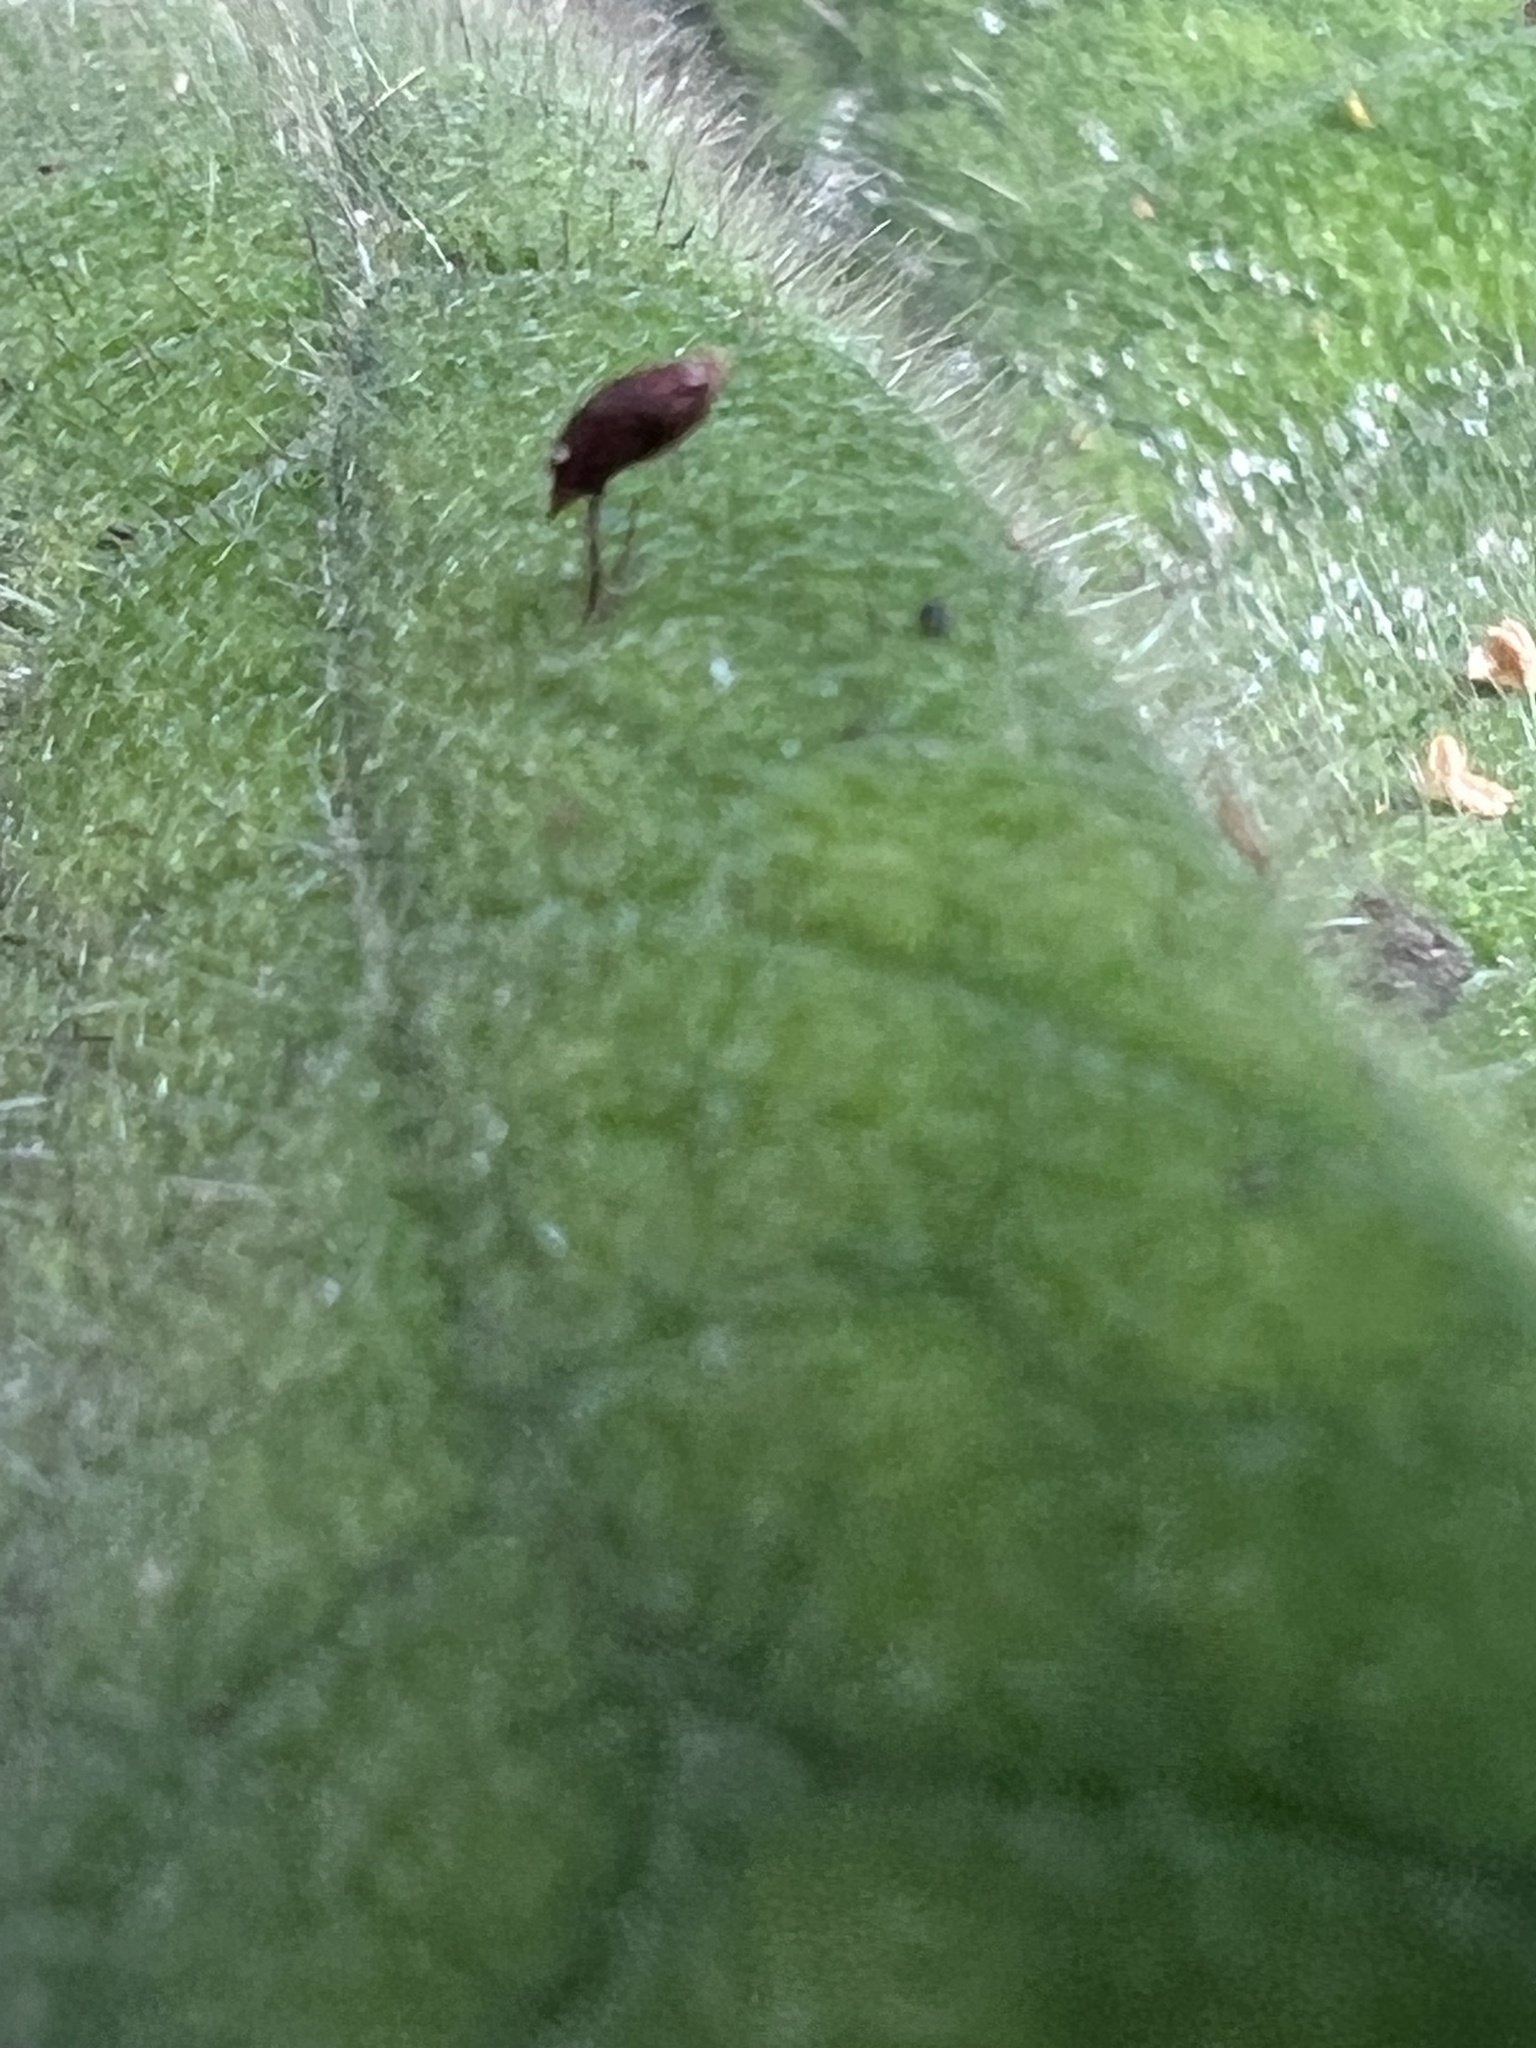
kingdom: Plantae
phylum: Tracheophyta
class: Magnoliopsida
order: Solanales
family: Solanaceae
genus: Solanum
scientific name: Solanum quitoense
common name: Quito-orange
